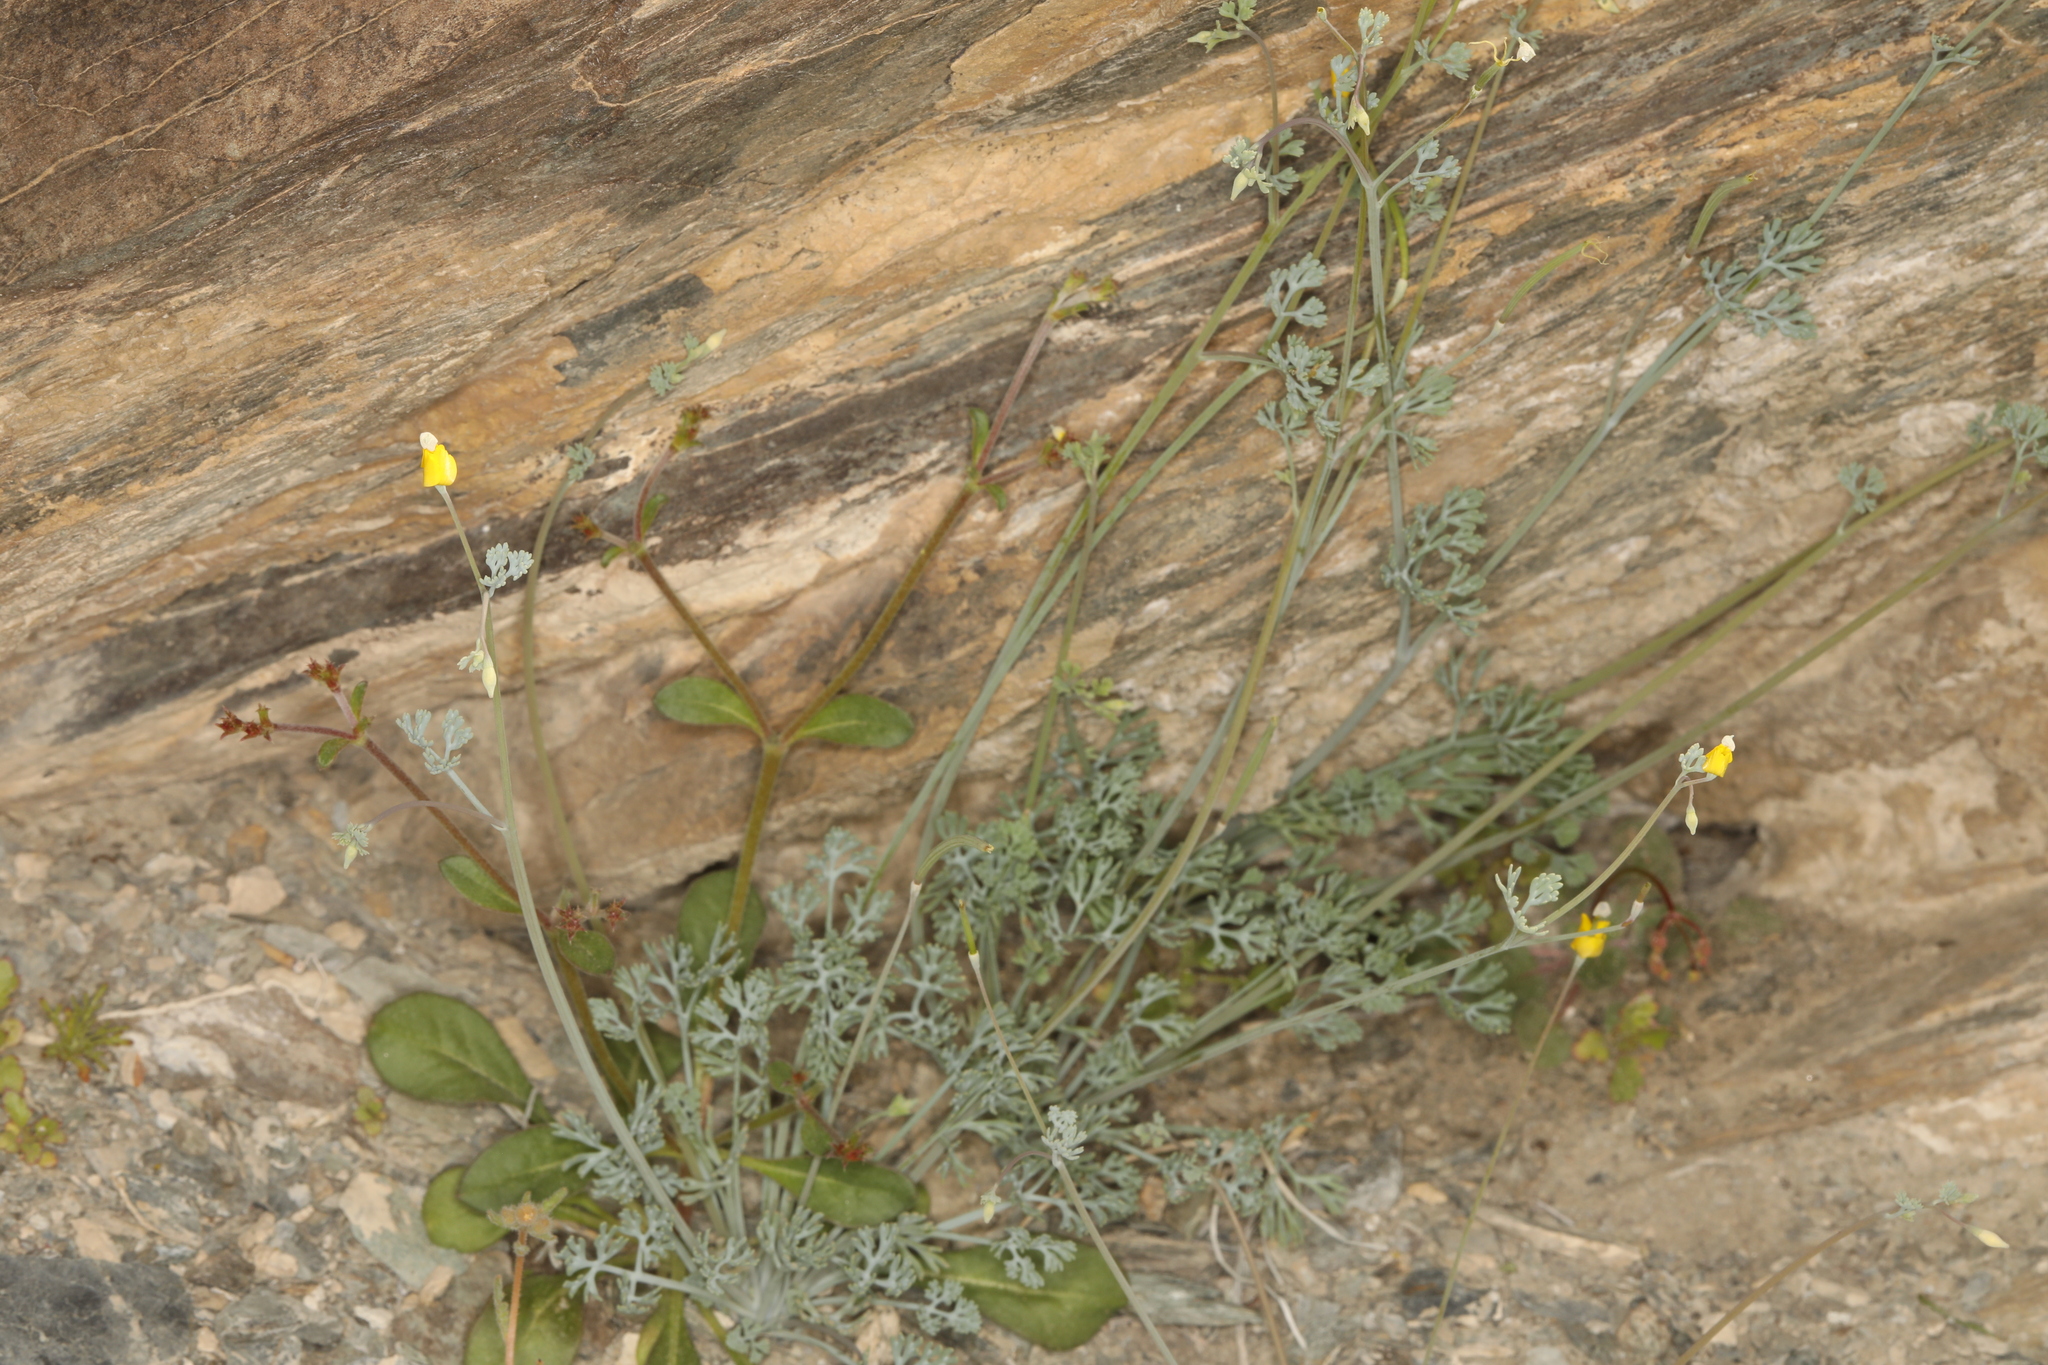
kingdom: Plantae
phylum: Tracheophyta
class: Magnoliopsida
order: Ranunculales
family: Papaveraceae
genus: Eschscholzia
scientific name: Eschscholzia minutiflora
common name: Small-flower california-poppy
